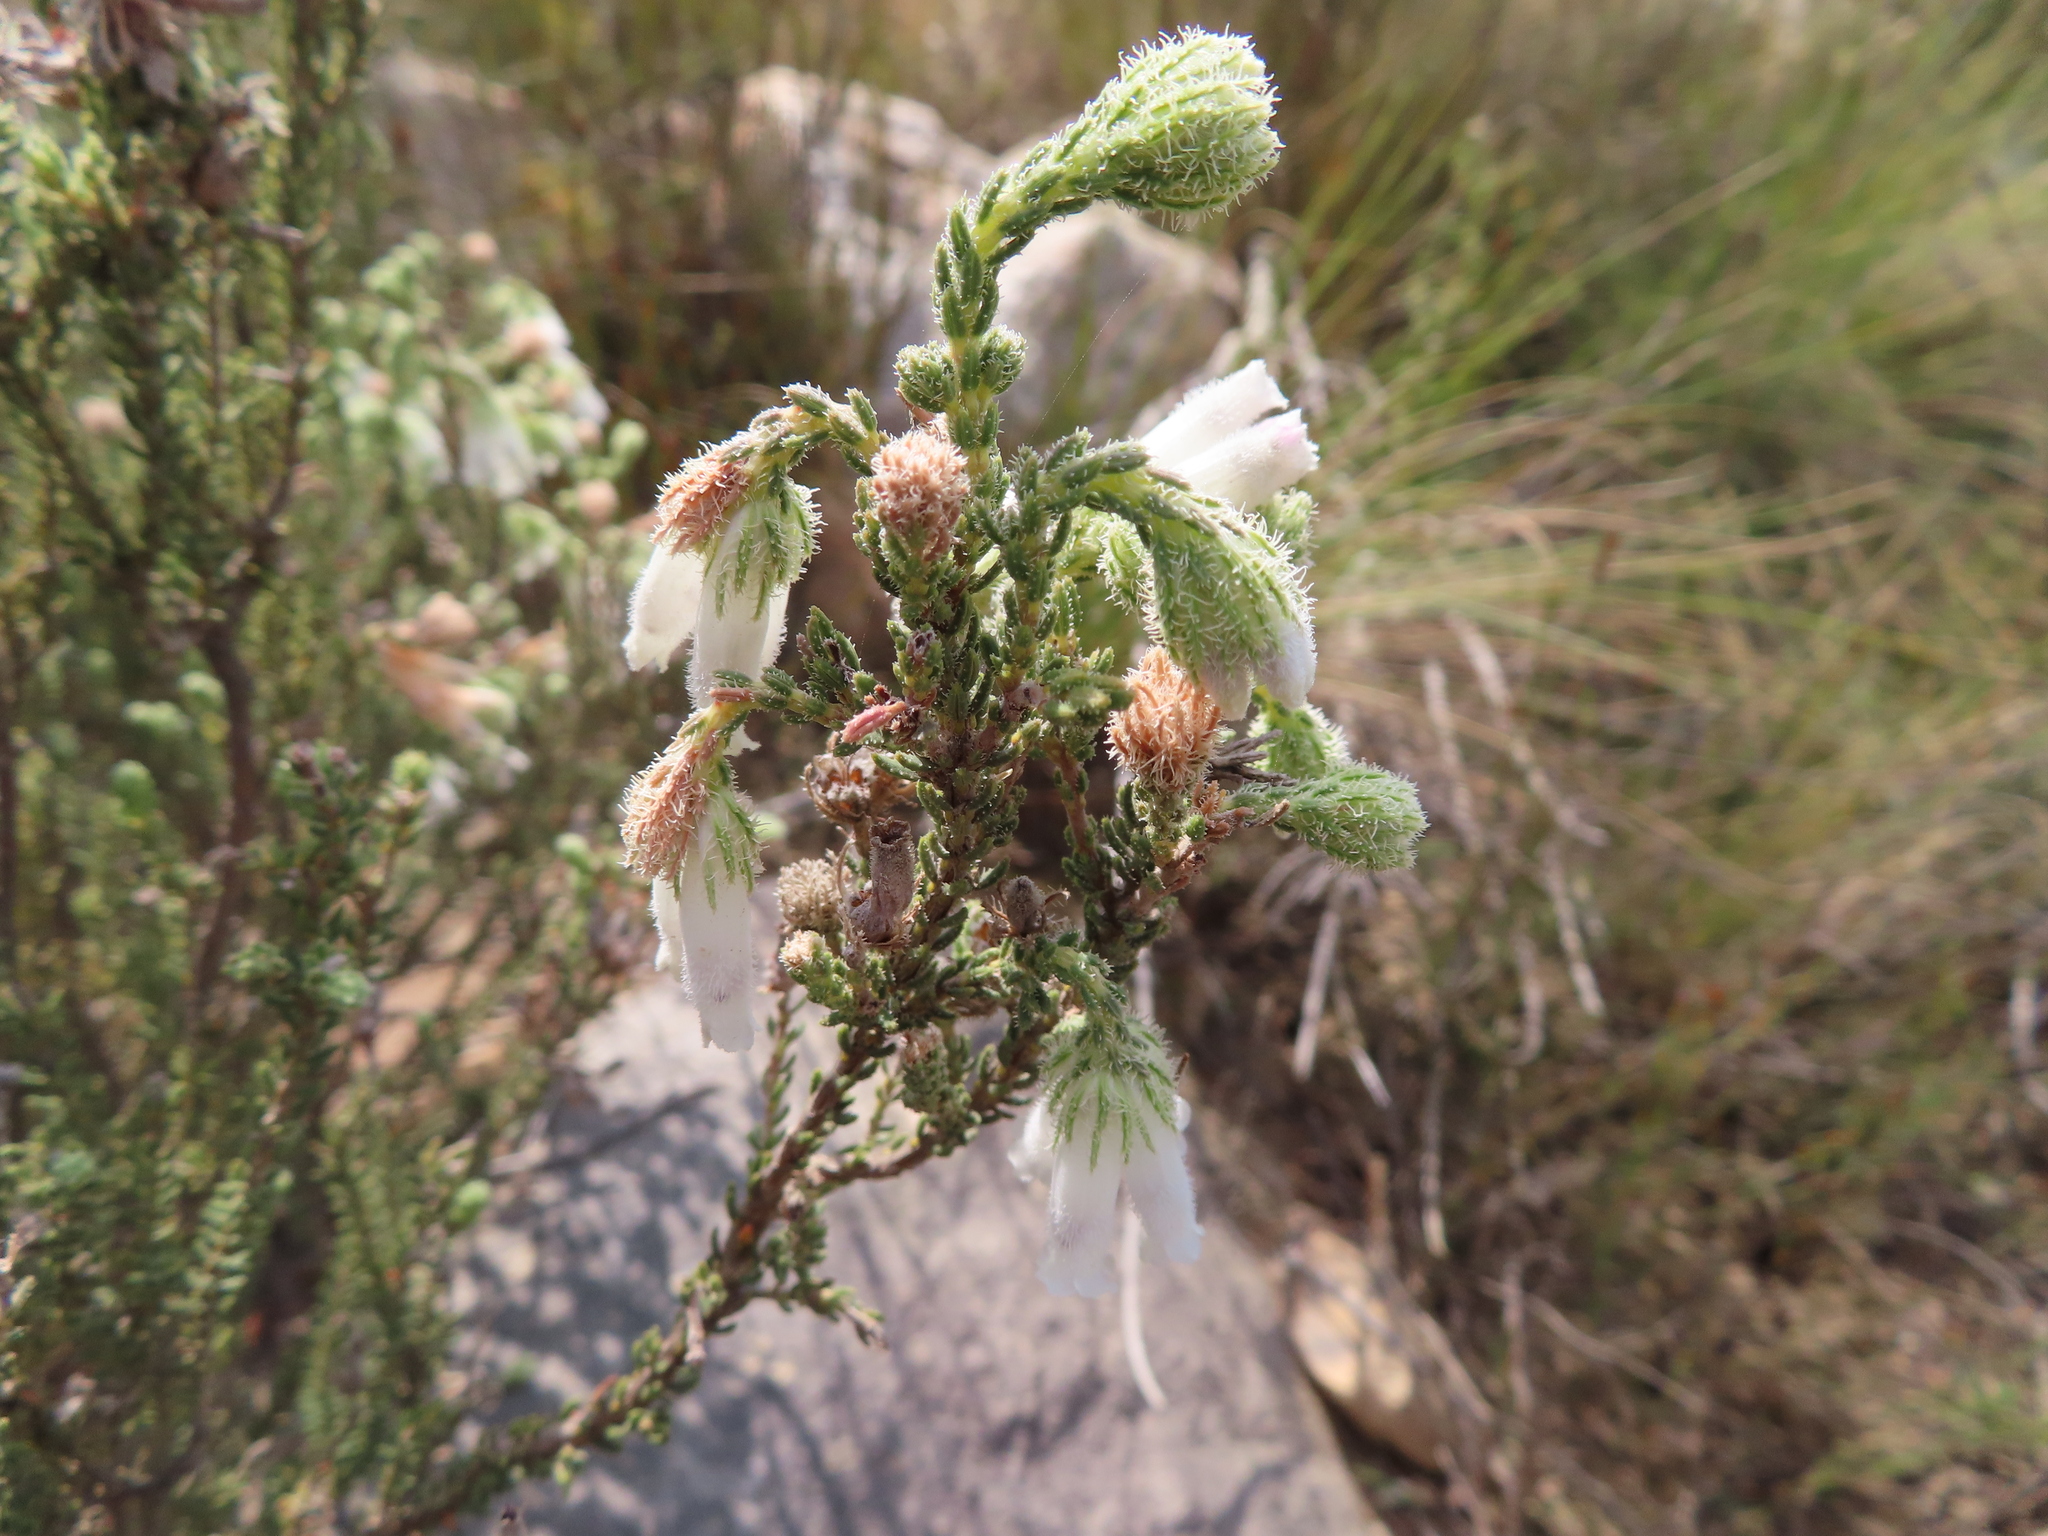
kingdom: Plantae
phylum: Tracheophyta
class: Magnoliopsida
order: Ericales
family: Ericaceae
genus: Erica
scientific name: Erica strigilifolia
